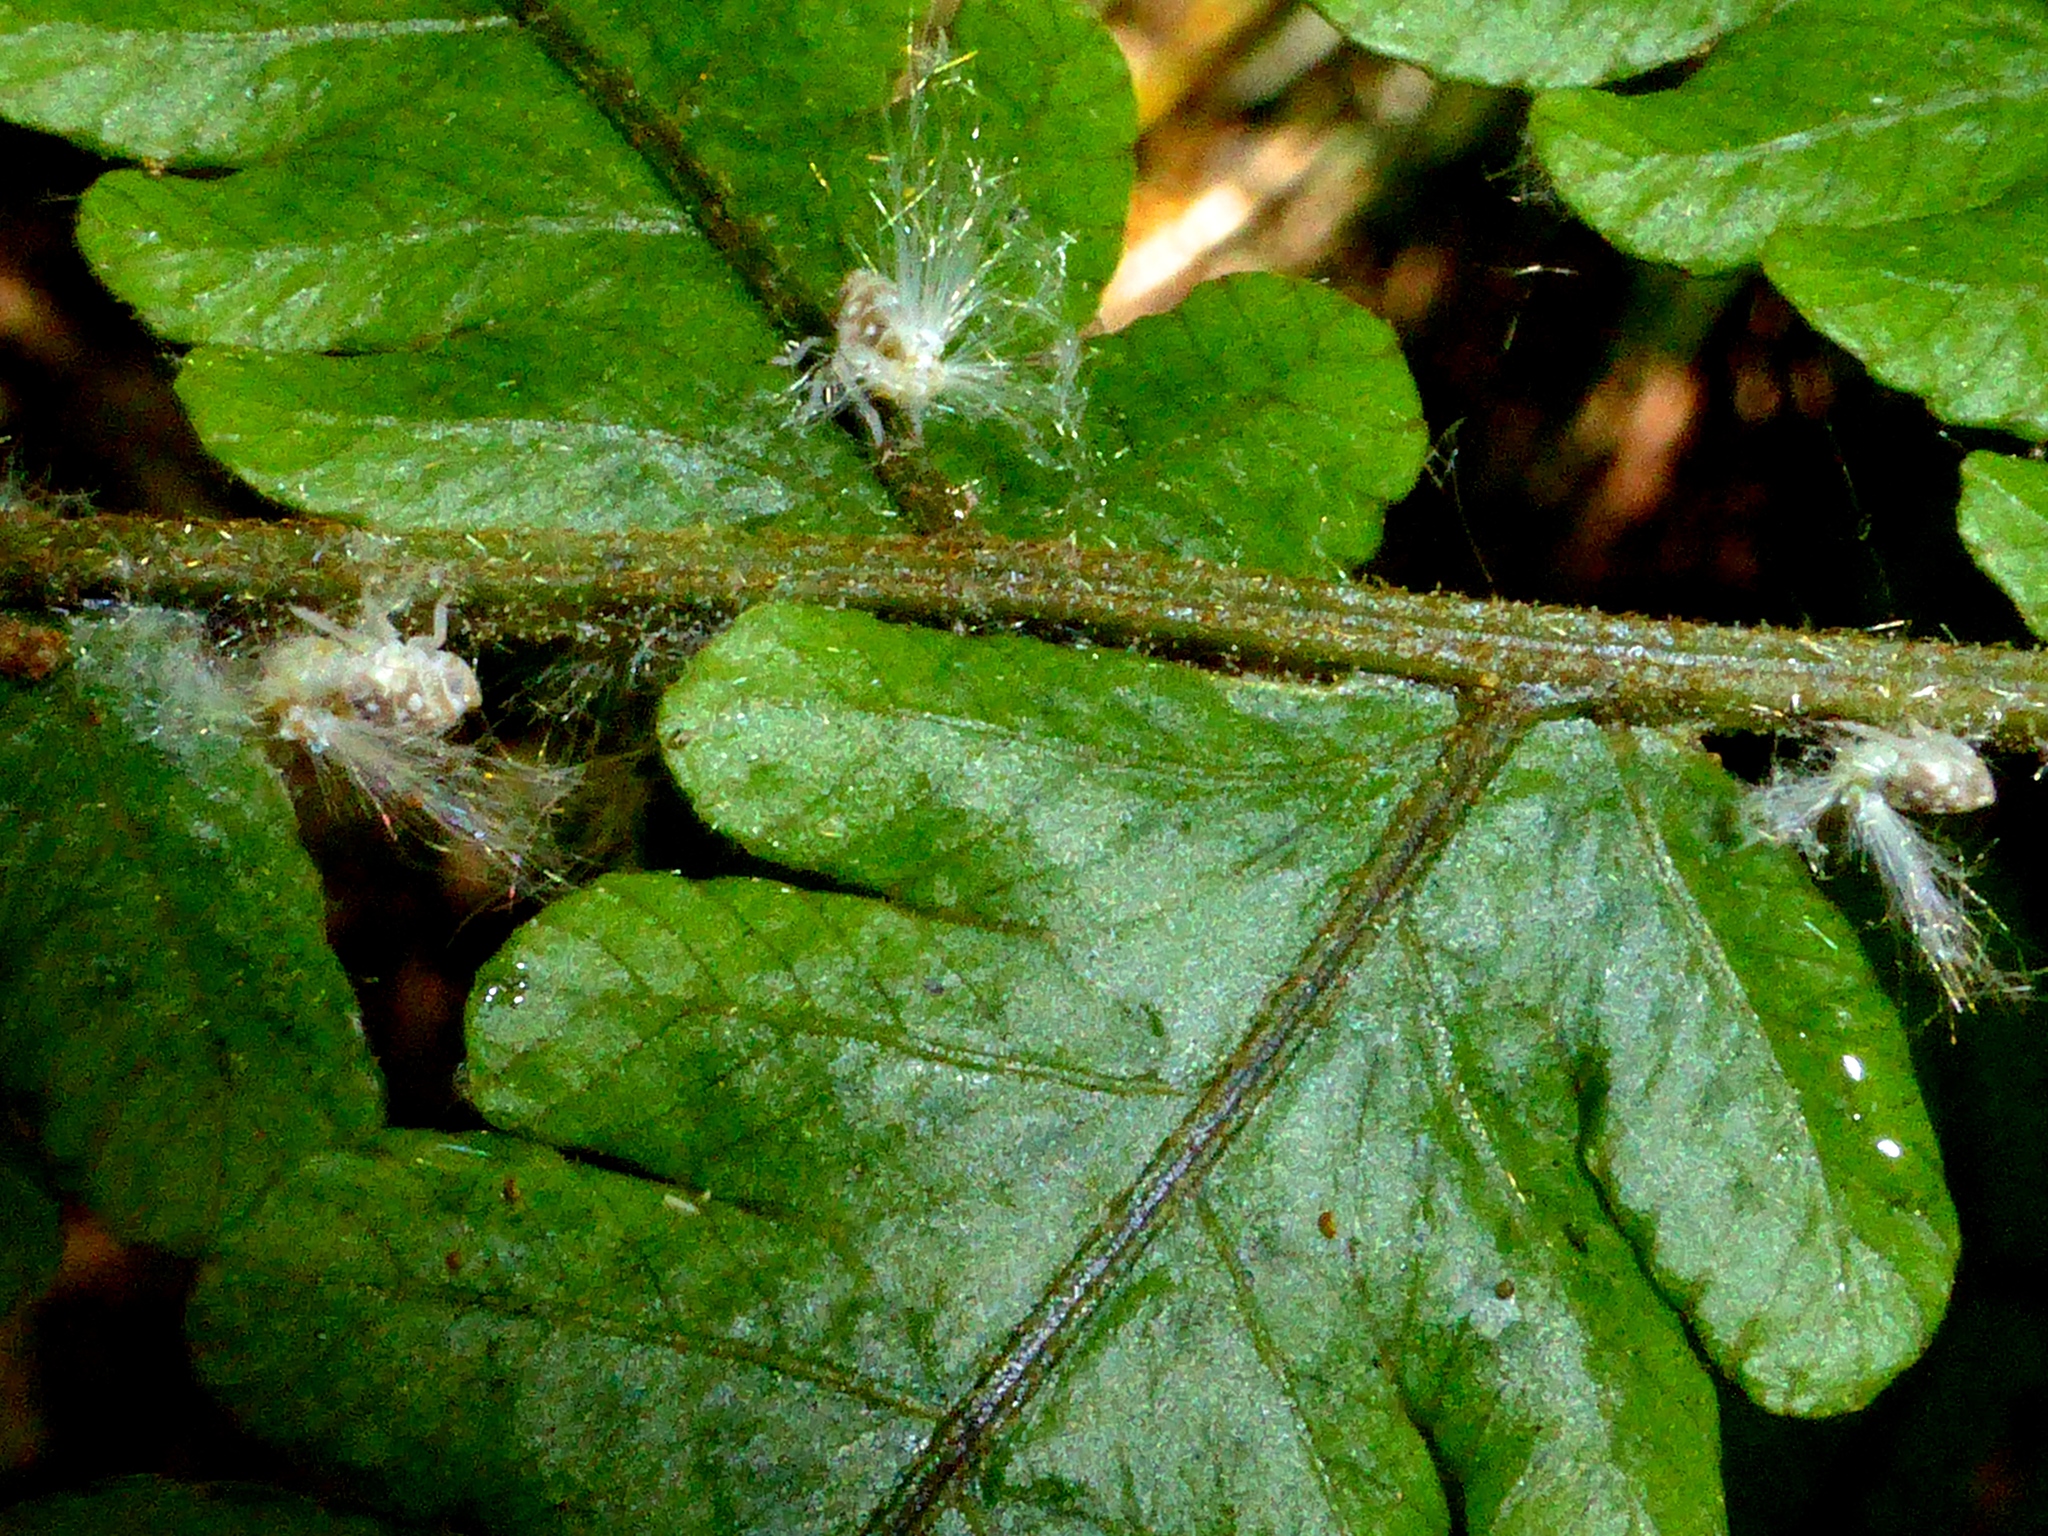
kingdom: Animalia
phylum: Arthropoda
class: Insecta
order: Hemiptera
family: Ricaniidae
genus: Scolypopa
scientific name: Scolypopa australis
